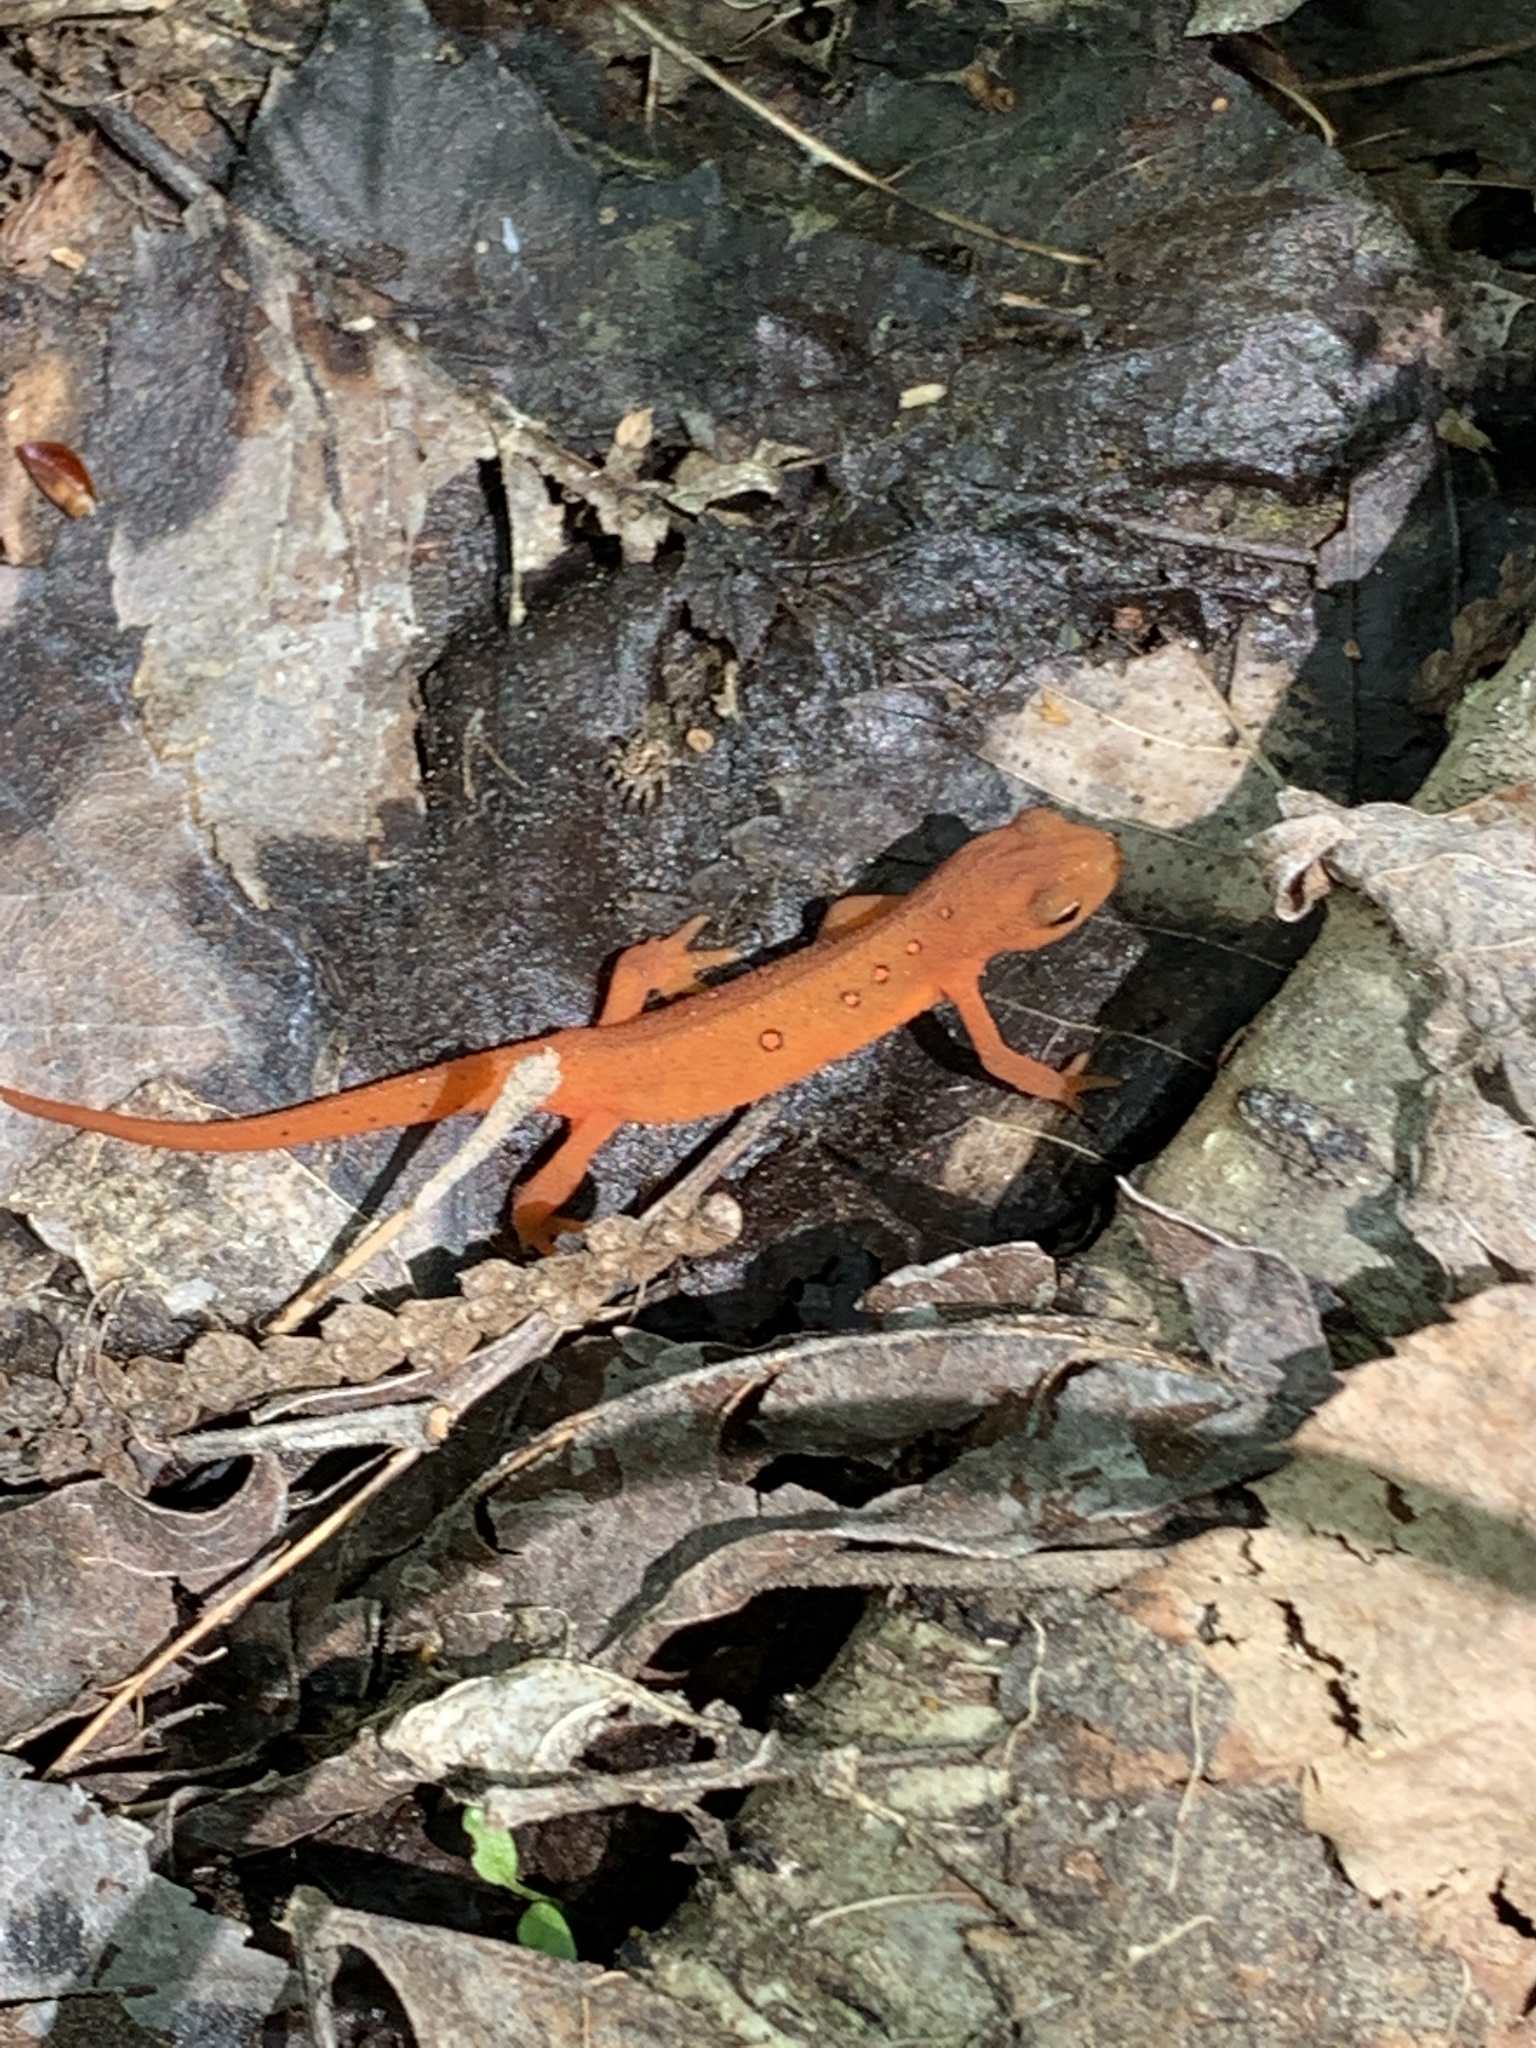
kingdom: Animalia
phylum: Chordata
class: Amphibia
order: Caudata
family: Salamandridae
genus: Notophthalmus
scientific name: Notophthalmus viridescens
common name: Eastern newt
